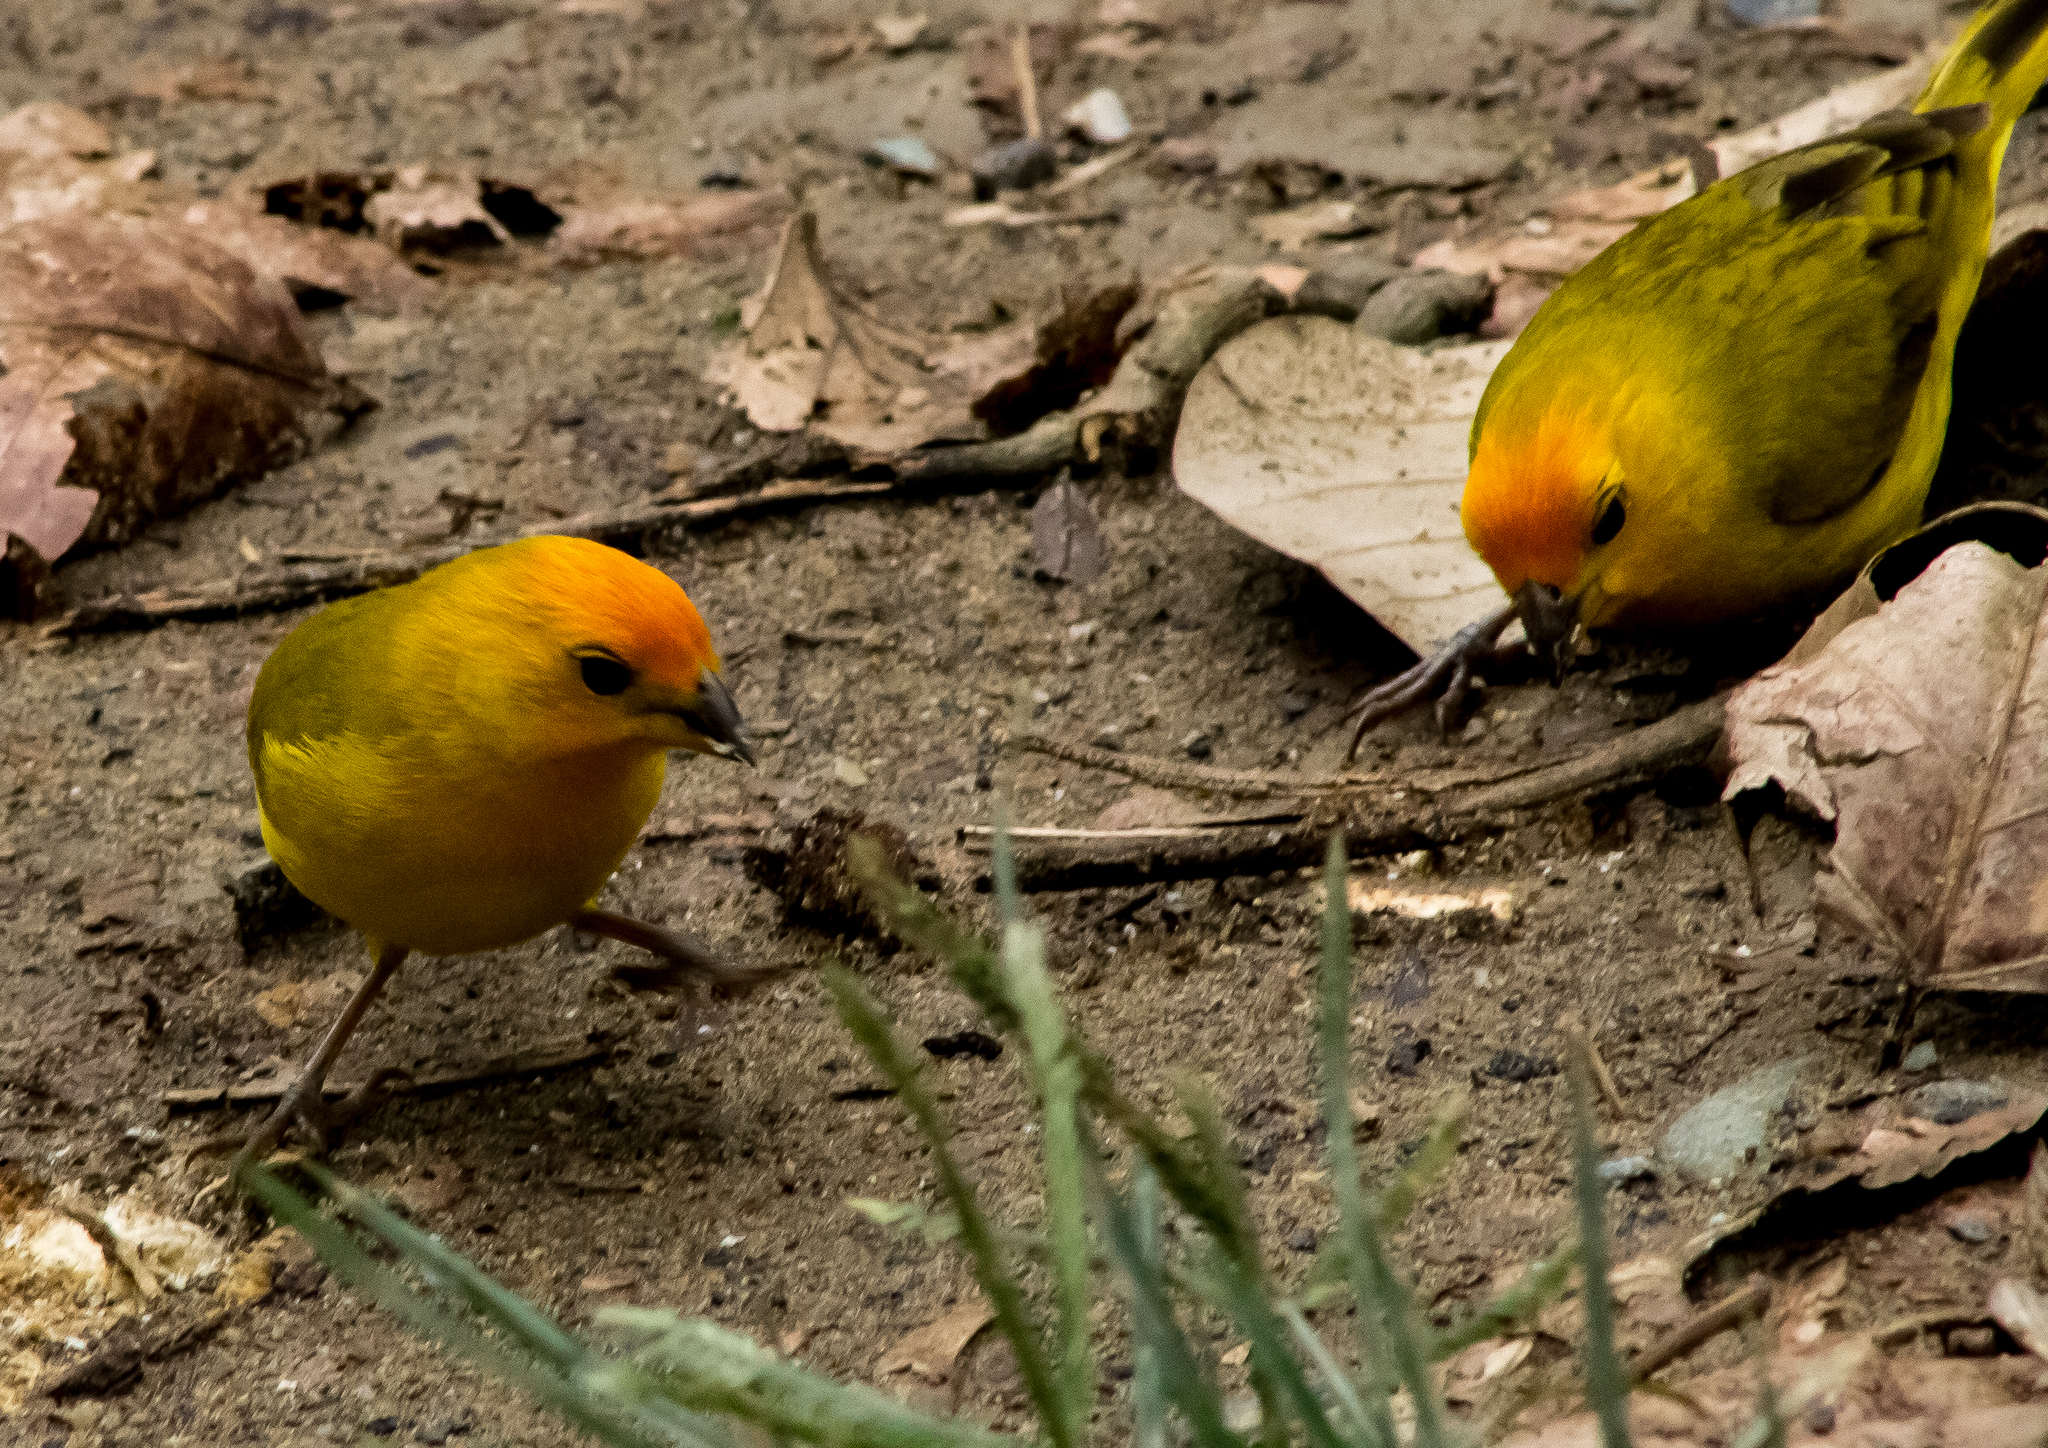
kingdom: Animalia
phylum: Chordata
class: Aves
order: Passeriformes
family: Thraupidae
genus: Sicalis
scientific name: Sicalis flaveola
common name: Saffron finch
